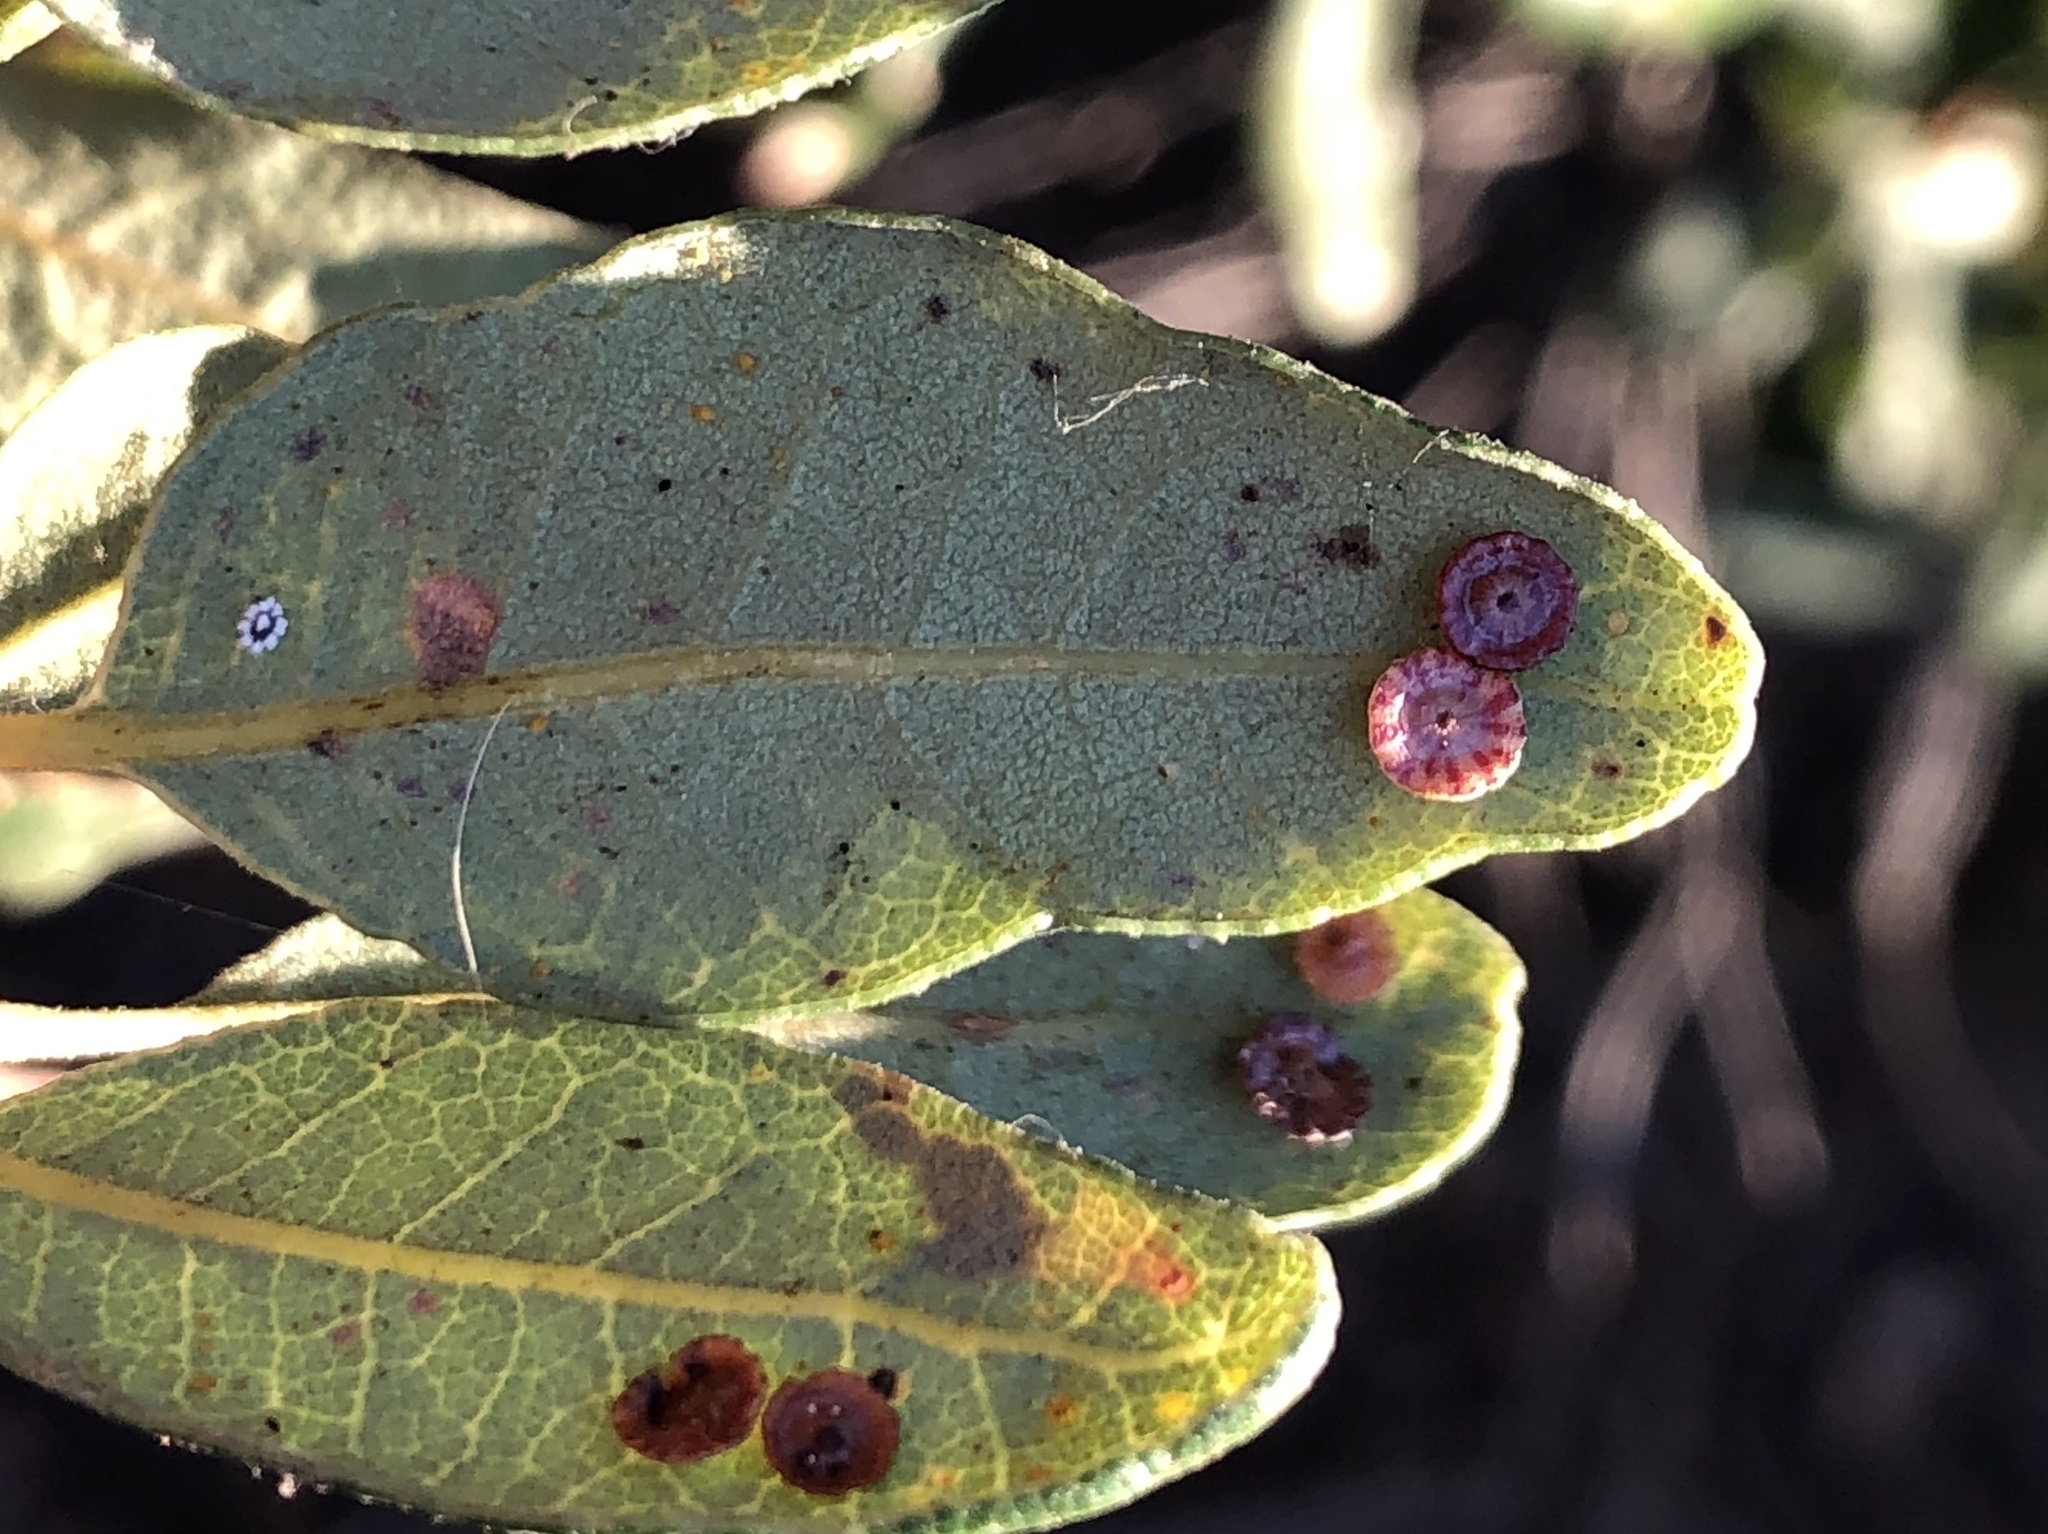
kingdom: Animalia
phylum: Arthropoda
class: Insecta
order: Hymenoptera
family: Cynipidae
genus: Andricus
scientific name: Andricus
